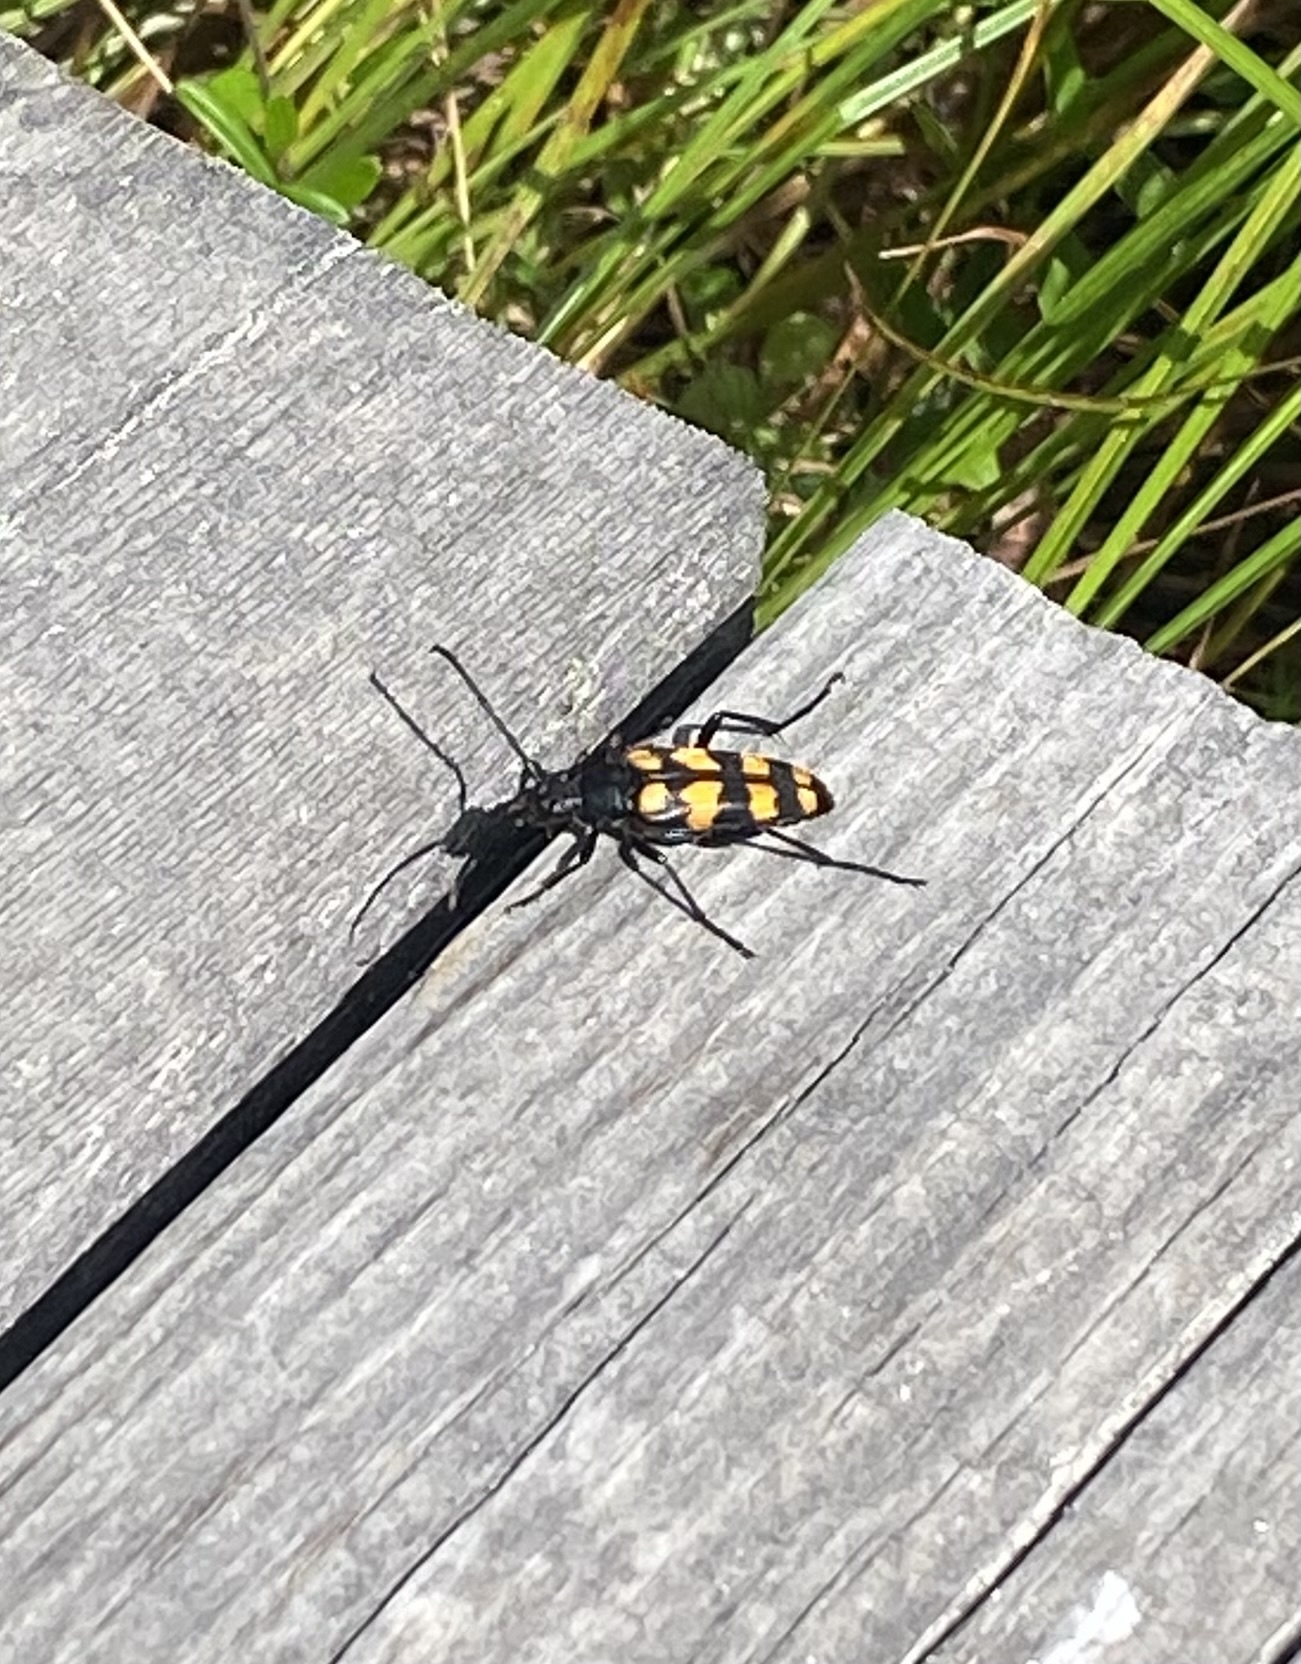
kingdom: Animalia
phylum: Arthropoda
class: Insecta
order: Coleoptera
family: Cerambycidae
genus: Leptura
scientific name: Leptura quadrifasciata
